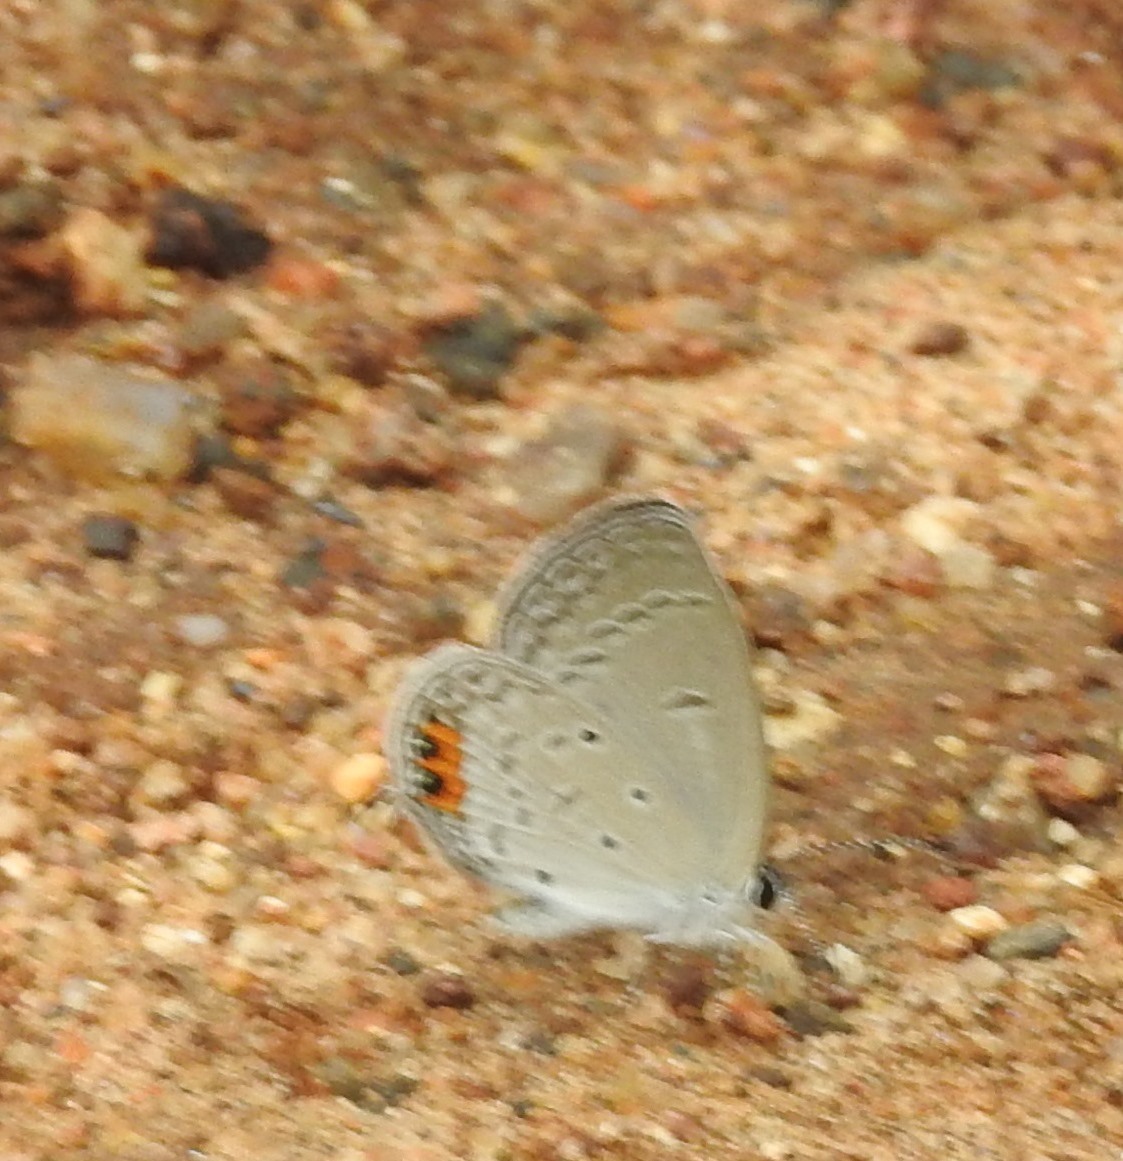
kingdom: Animalia
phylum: Arthropoda
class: Insecta
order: Lepidoptera
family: Lycaenidae
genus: Everes
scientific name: Everes lacturnus
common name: Orange-tipped pea-blue
